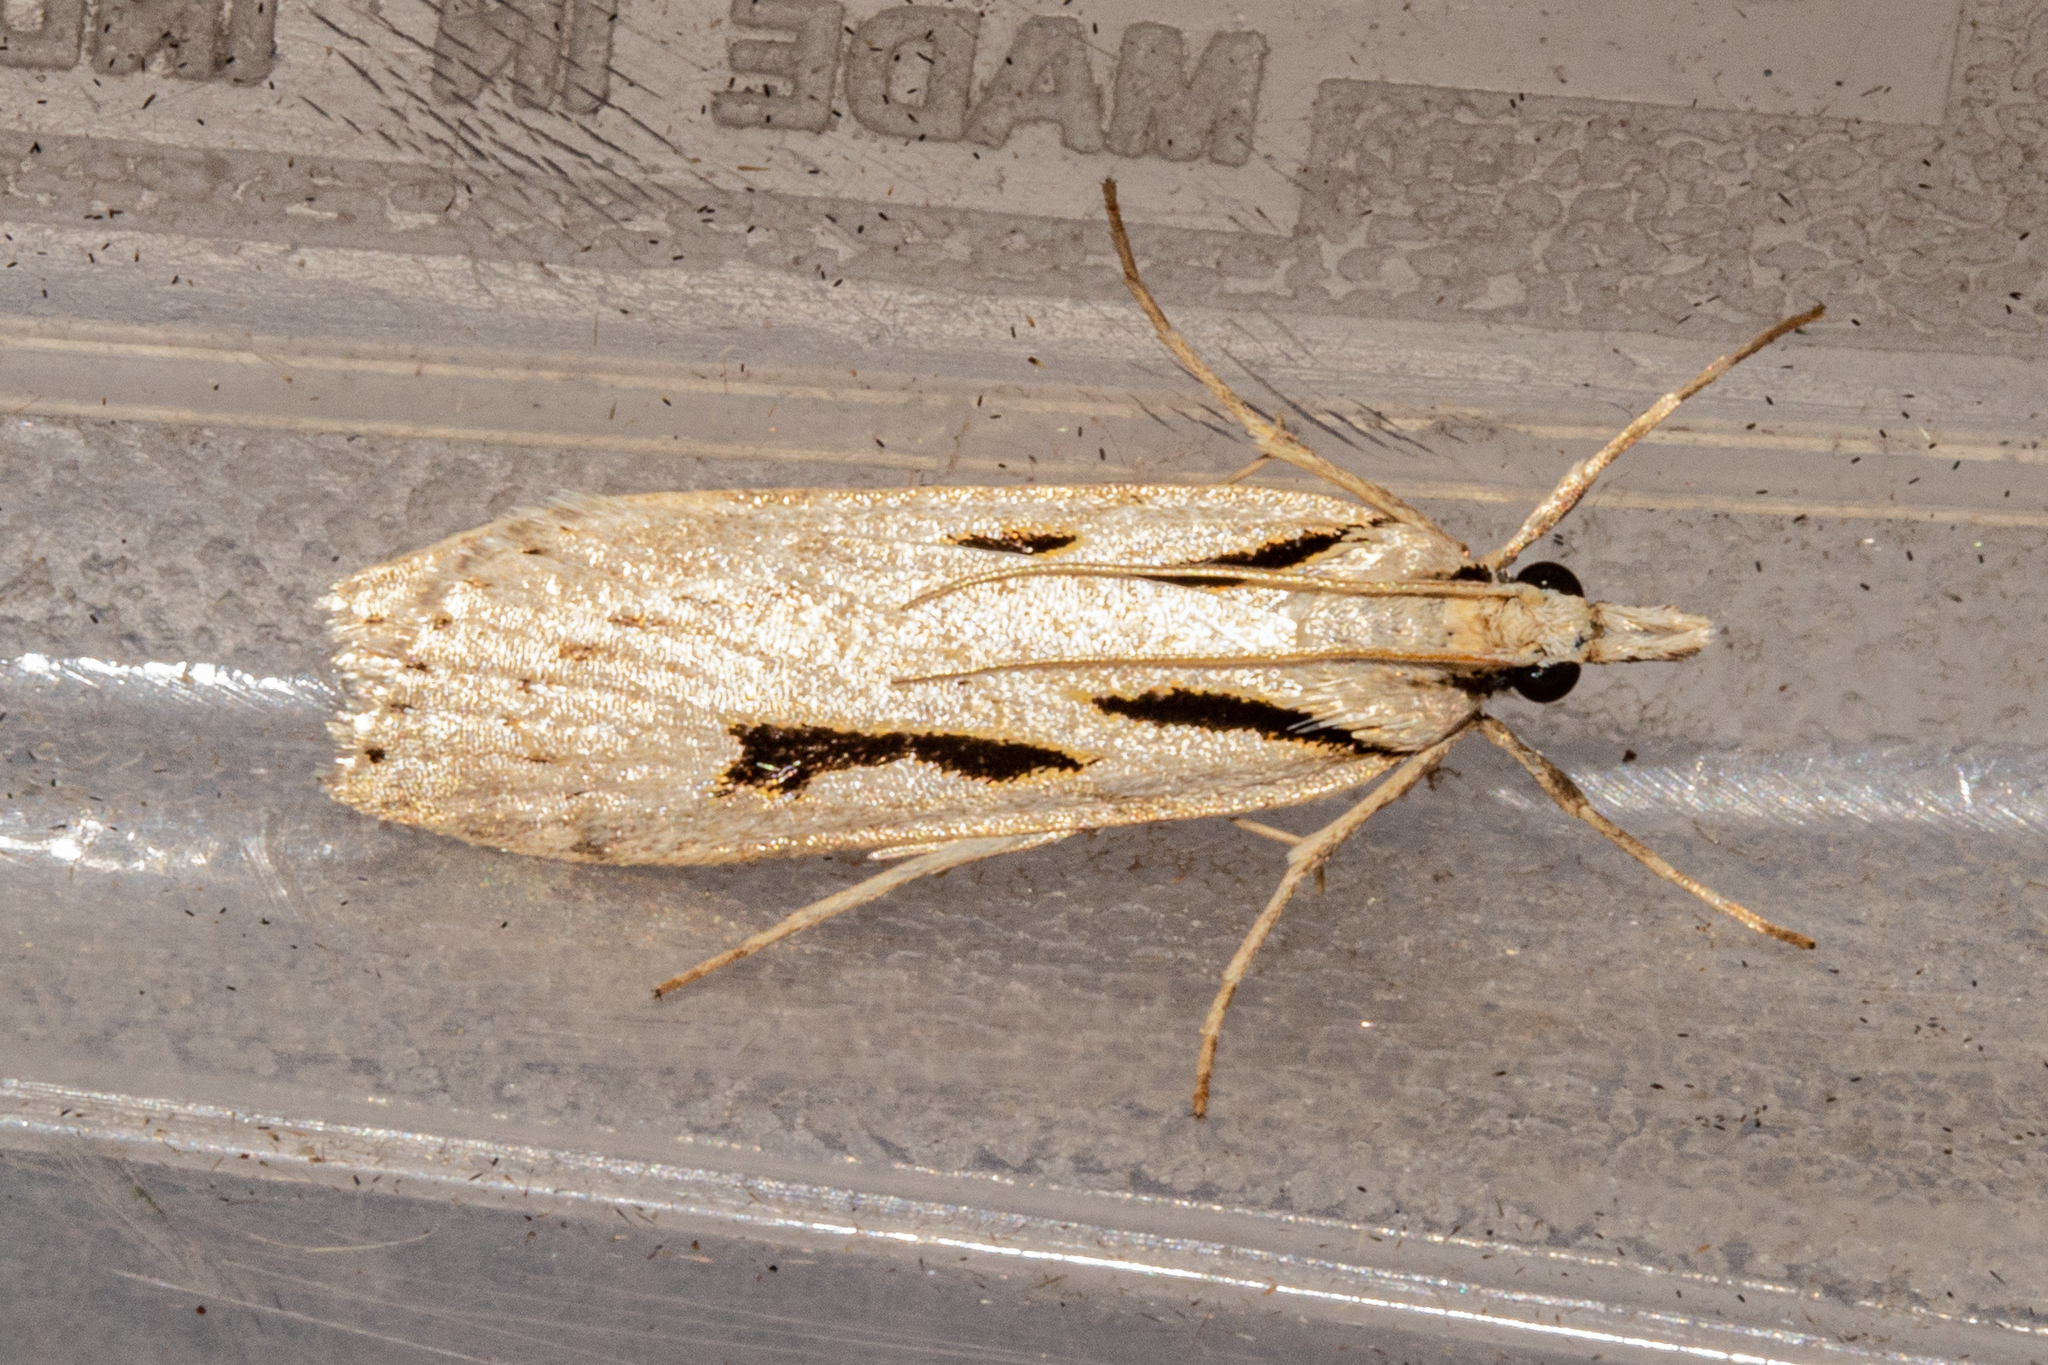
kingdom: Animalia
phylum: Arthropoda
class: Insecta
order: Lepidoptera
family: Crambidae
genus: Scoparia
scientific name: Scoparia rotuellus
